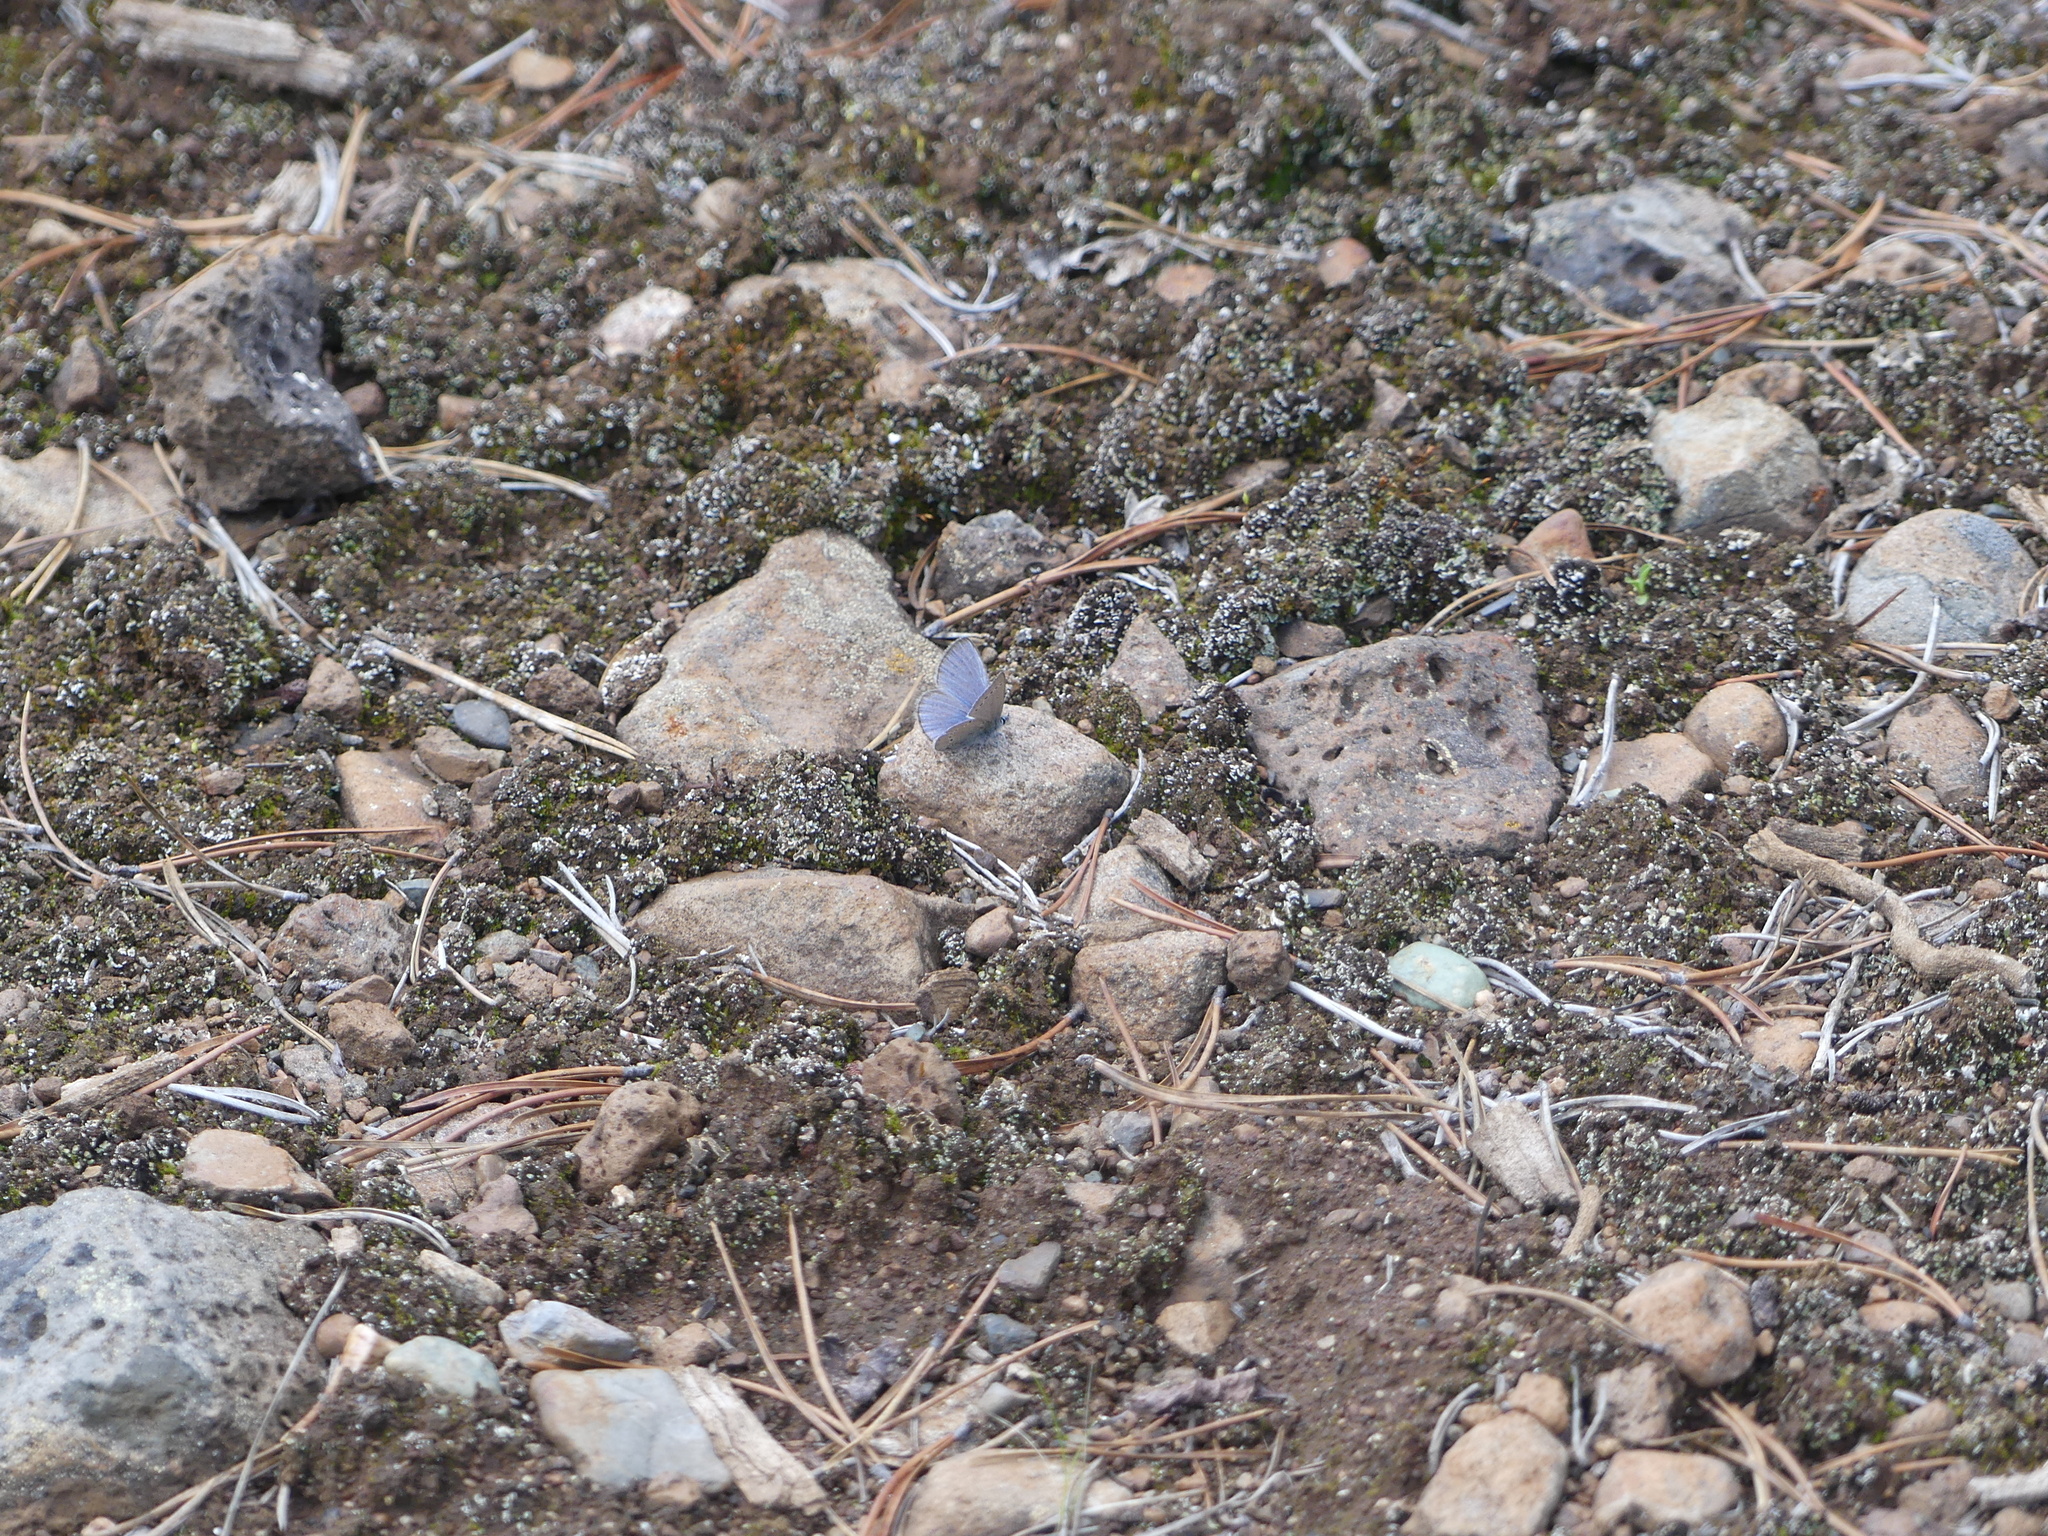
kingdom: Animalia
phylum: Arthropoda
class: Insecta
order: Lepidoptera
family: Lycaenidae
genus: Glaucopsyche
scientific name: Glaucopsyche lygdamus
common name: Silvery blue
